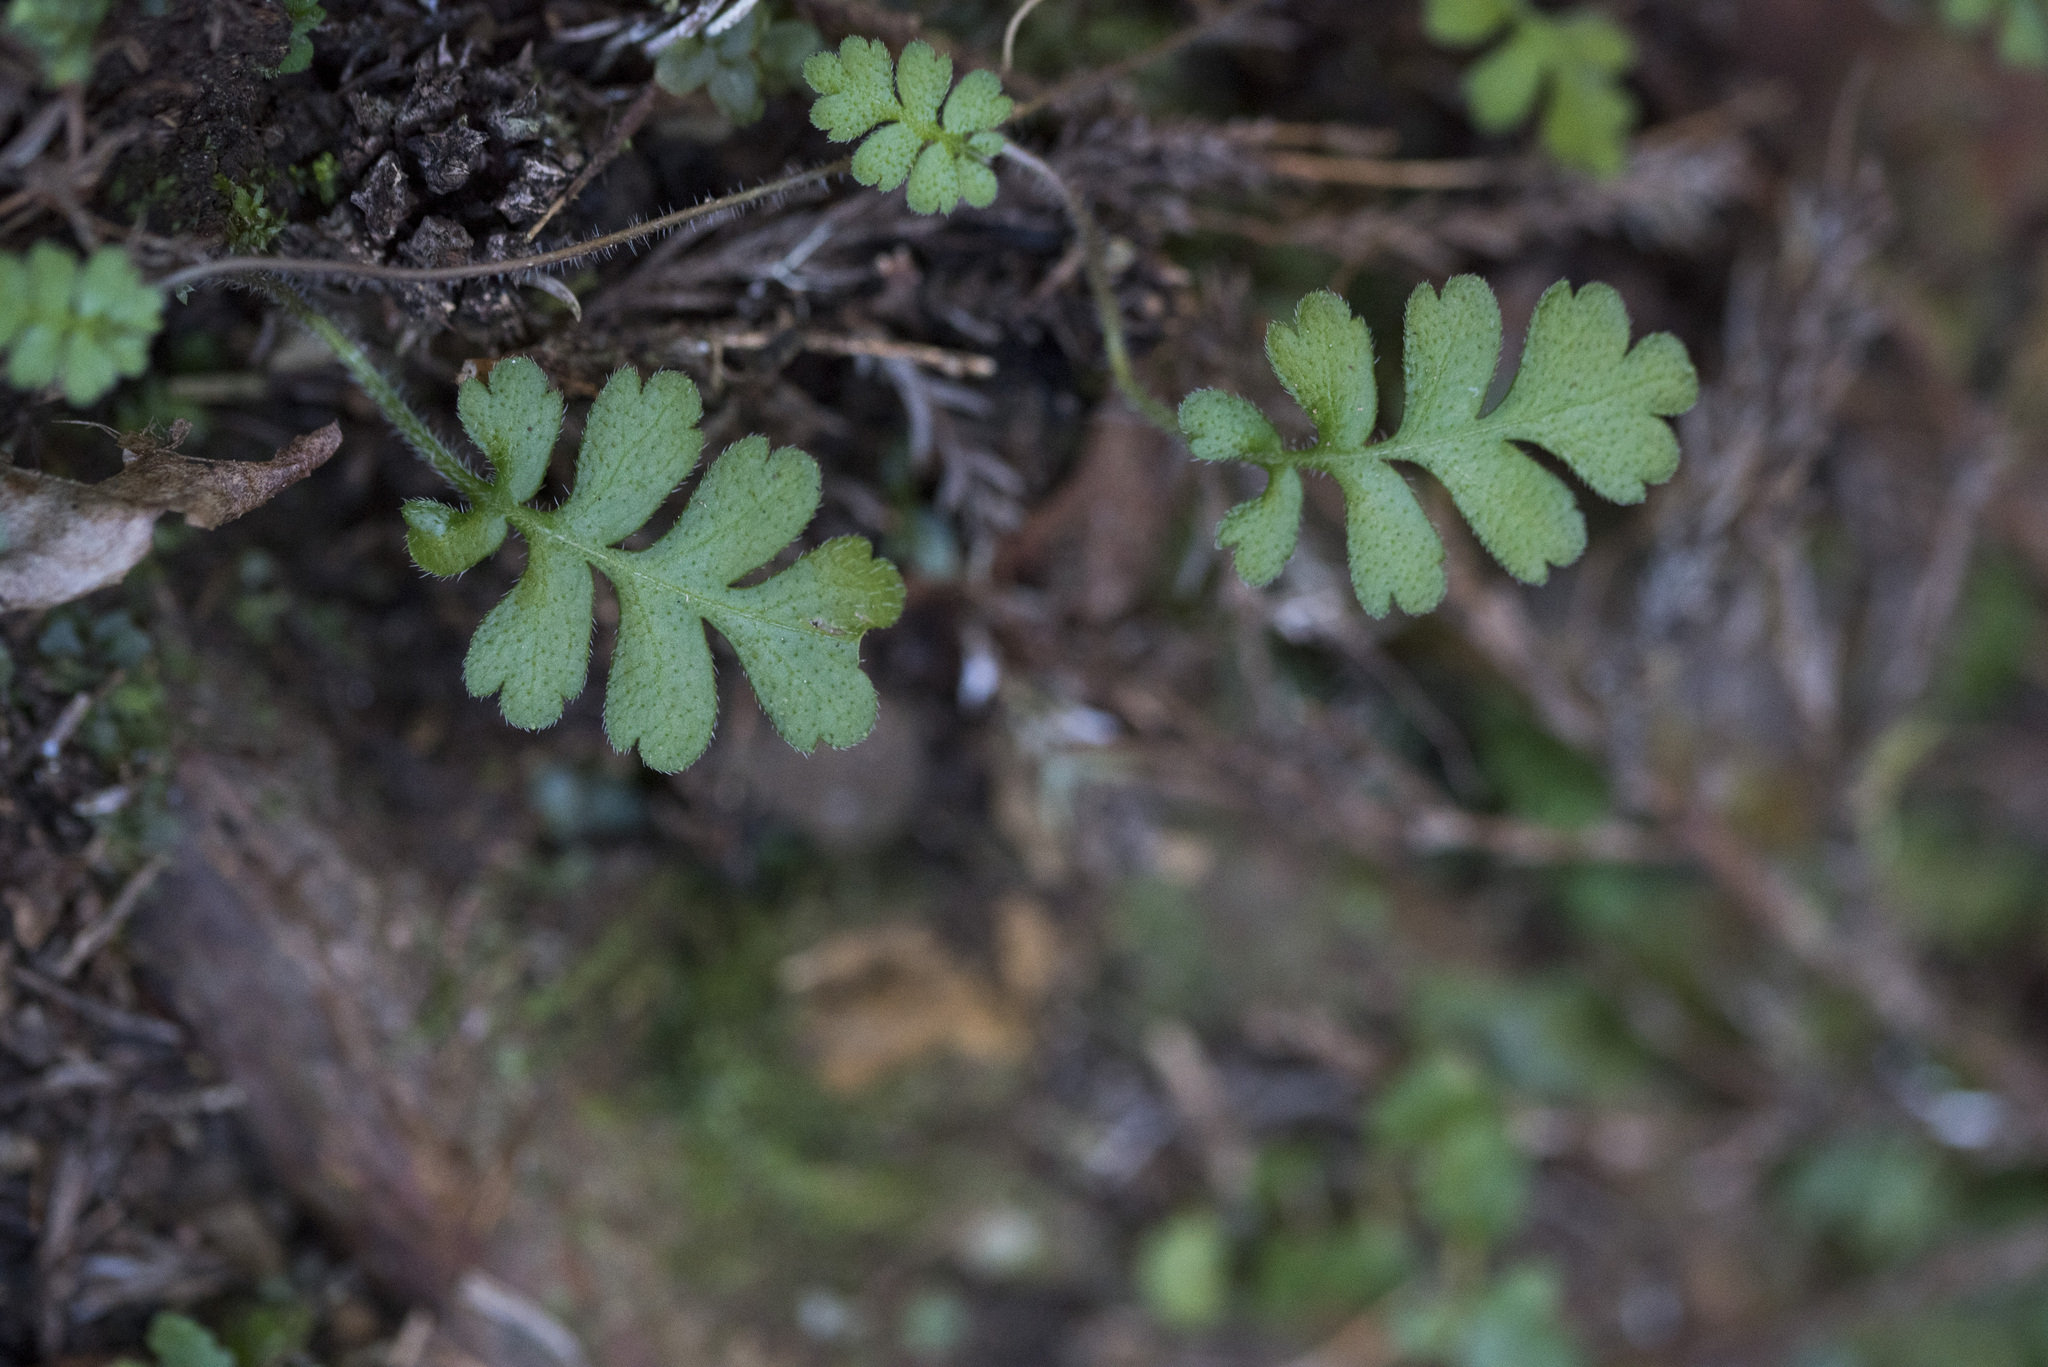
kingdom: Plantae
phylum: Tracheophyta
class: Magnoliopsida
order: Lamiales
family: Plantaginaceae
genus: Ellisiophyllum
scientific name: Ellisiophyllum pinnatum
